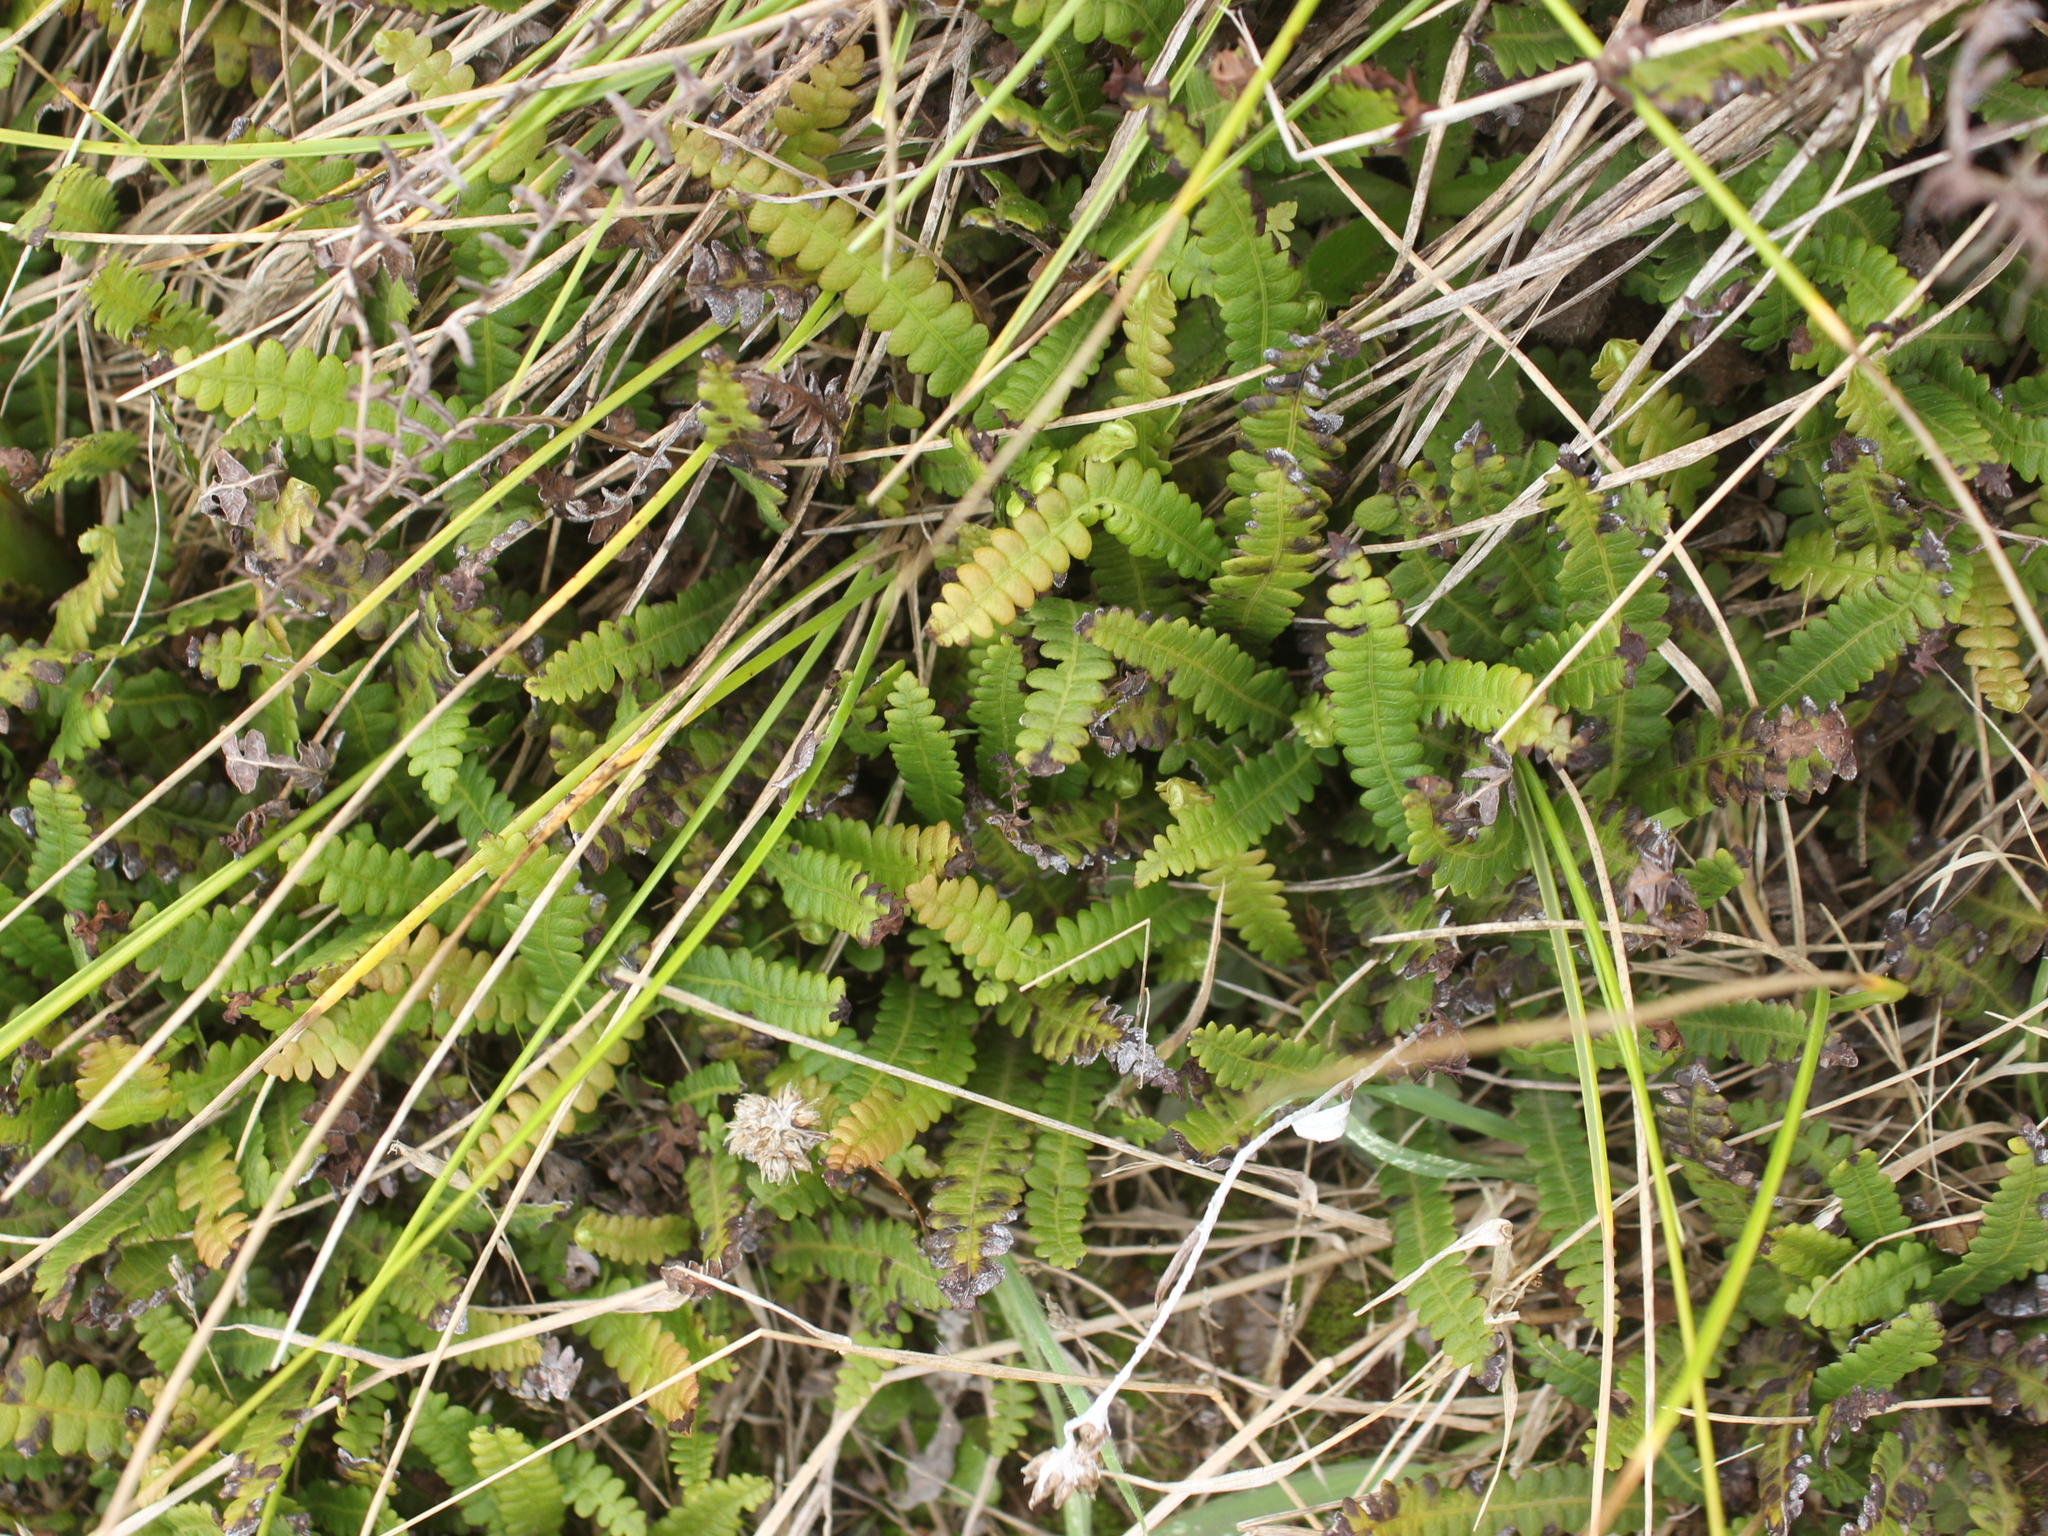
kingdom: Plantae
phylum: Tracheophyta
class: Polypodiopsida
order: Polypodiales
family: Blechnaceae
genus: Austroblechnum
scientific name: Austroblechnum penna-marina
